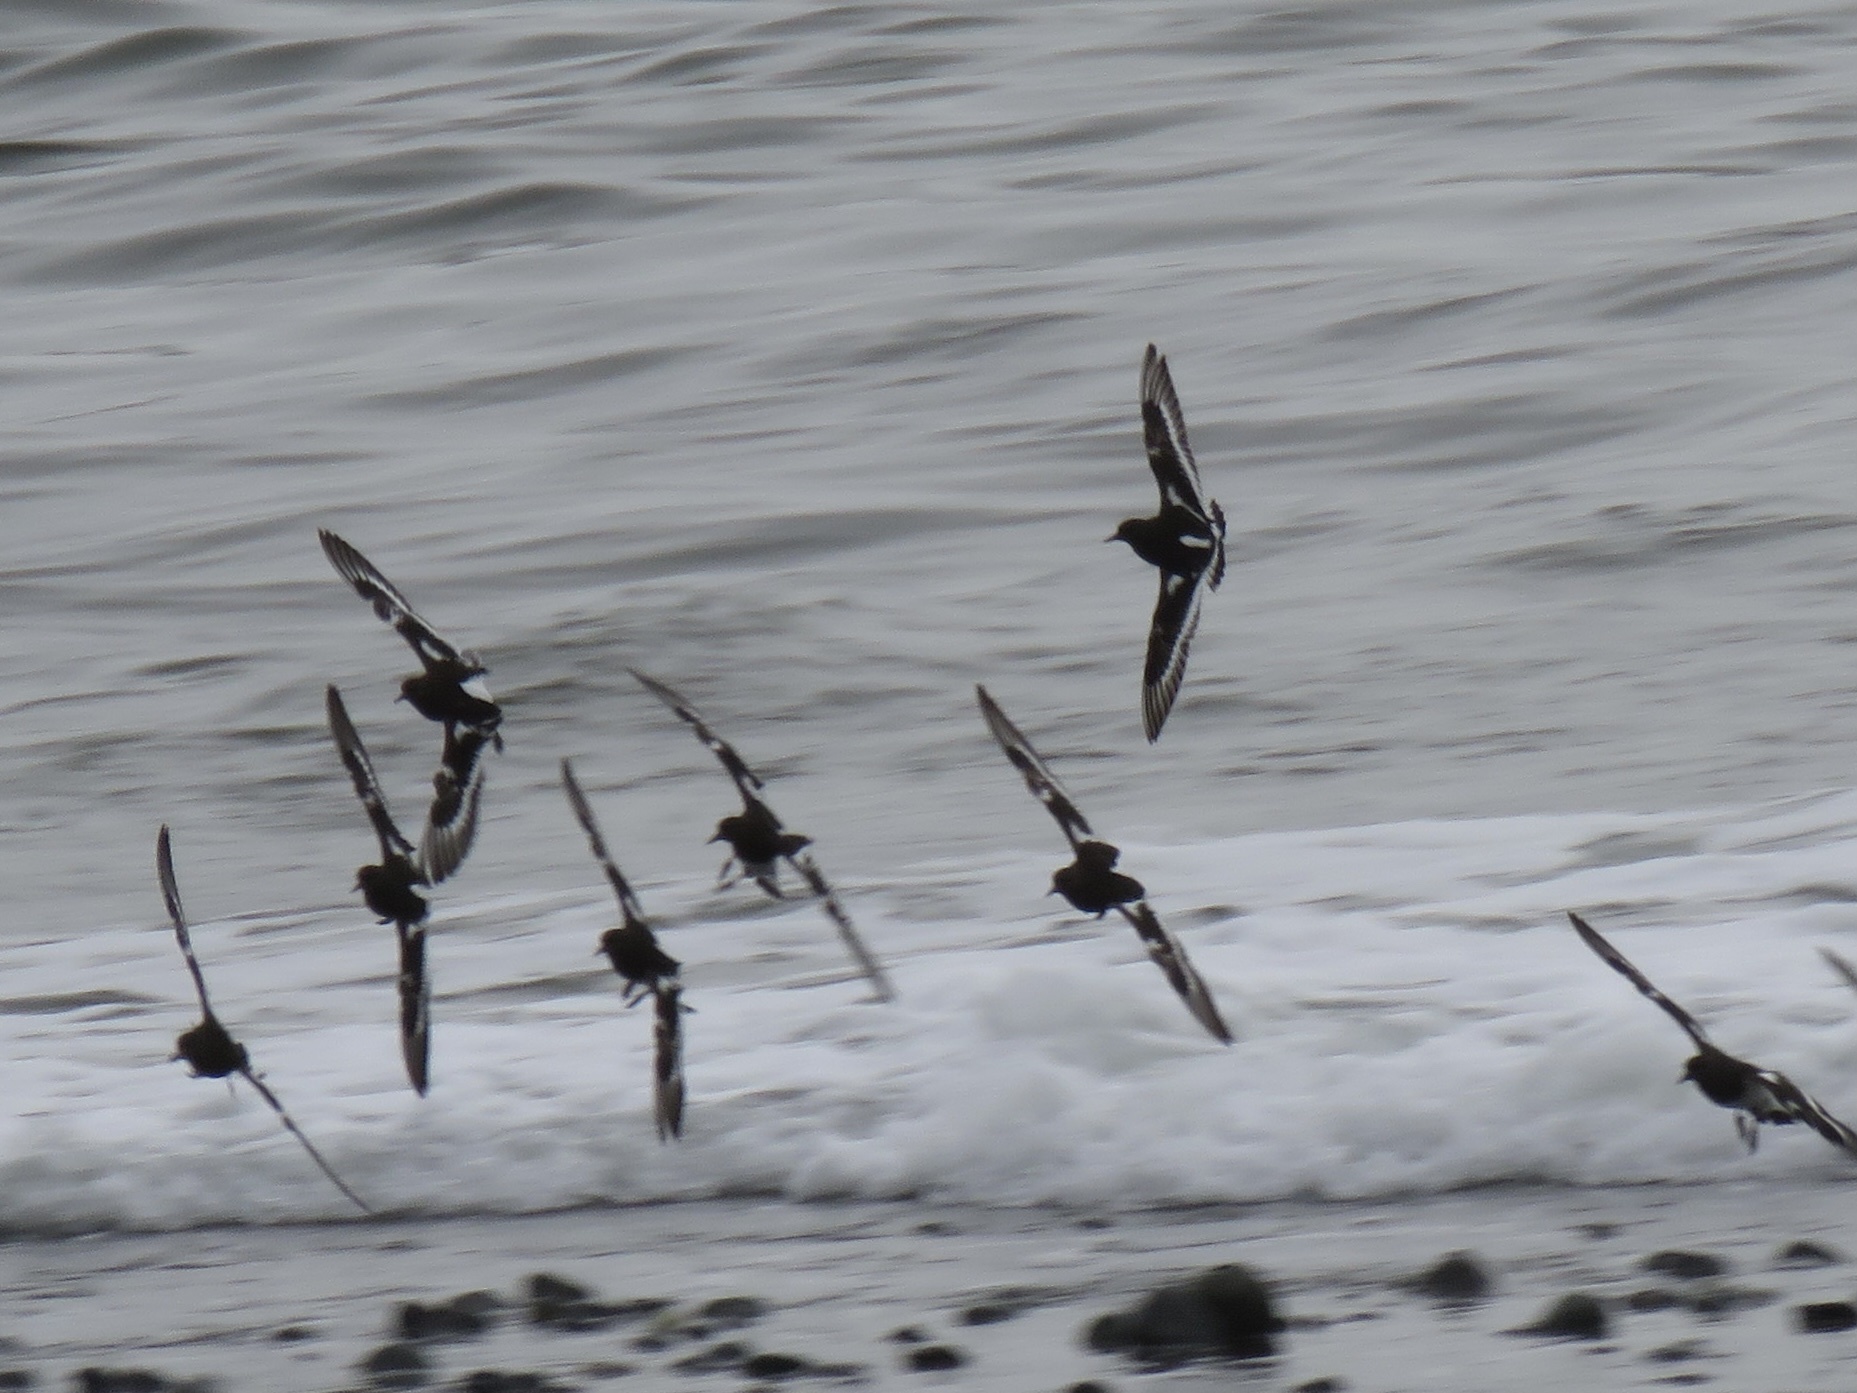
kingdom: Animalia
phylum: Chordata
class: Aves
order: Charadriiformes
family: Scolopacidae
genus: Arenaria
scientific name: Arenaria melanocephala
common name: Black turnstone
